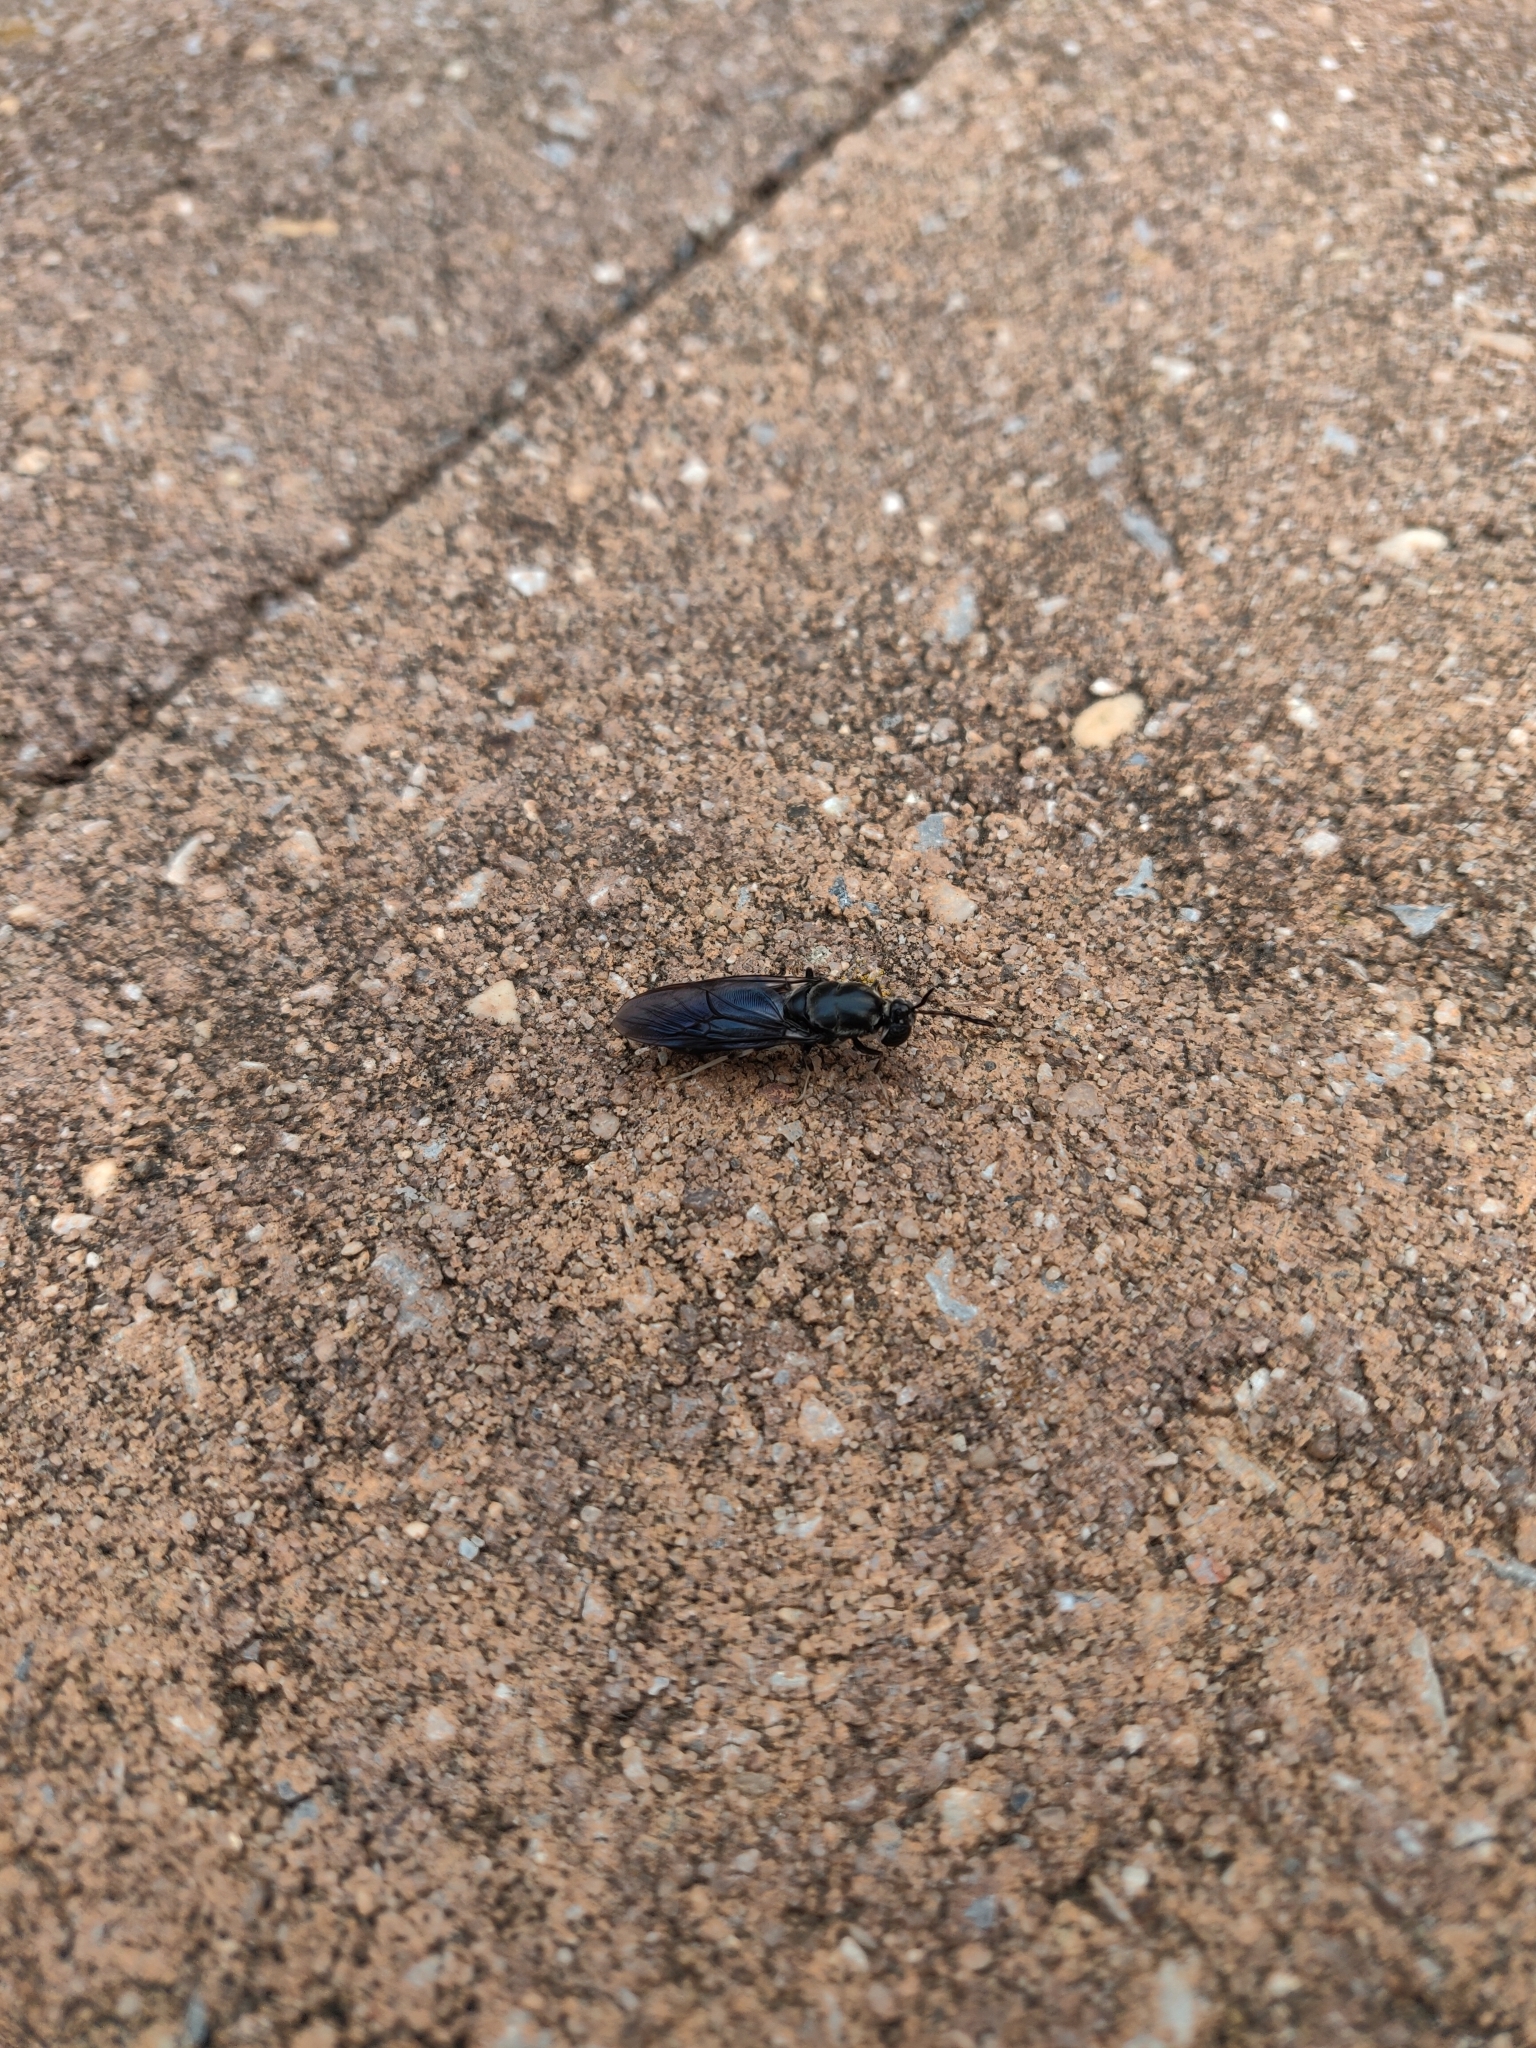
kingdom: Animalia
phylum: Arthropoda
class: Insecta
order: Diptera
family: Stratiomyidae
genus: Hermetia
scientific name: Hermetia illucens
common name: Black soldier fly
